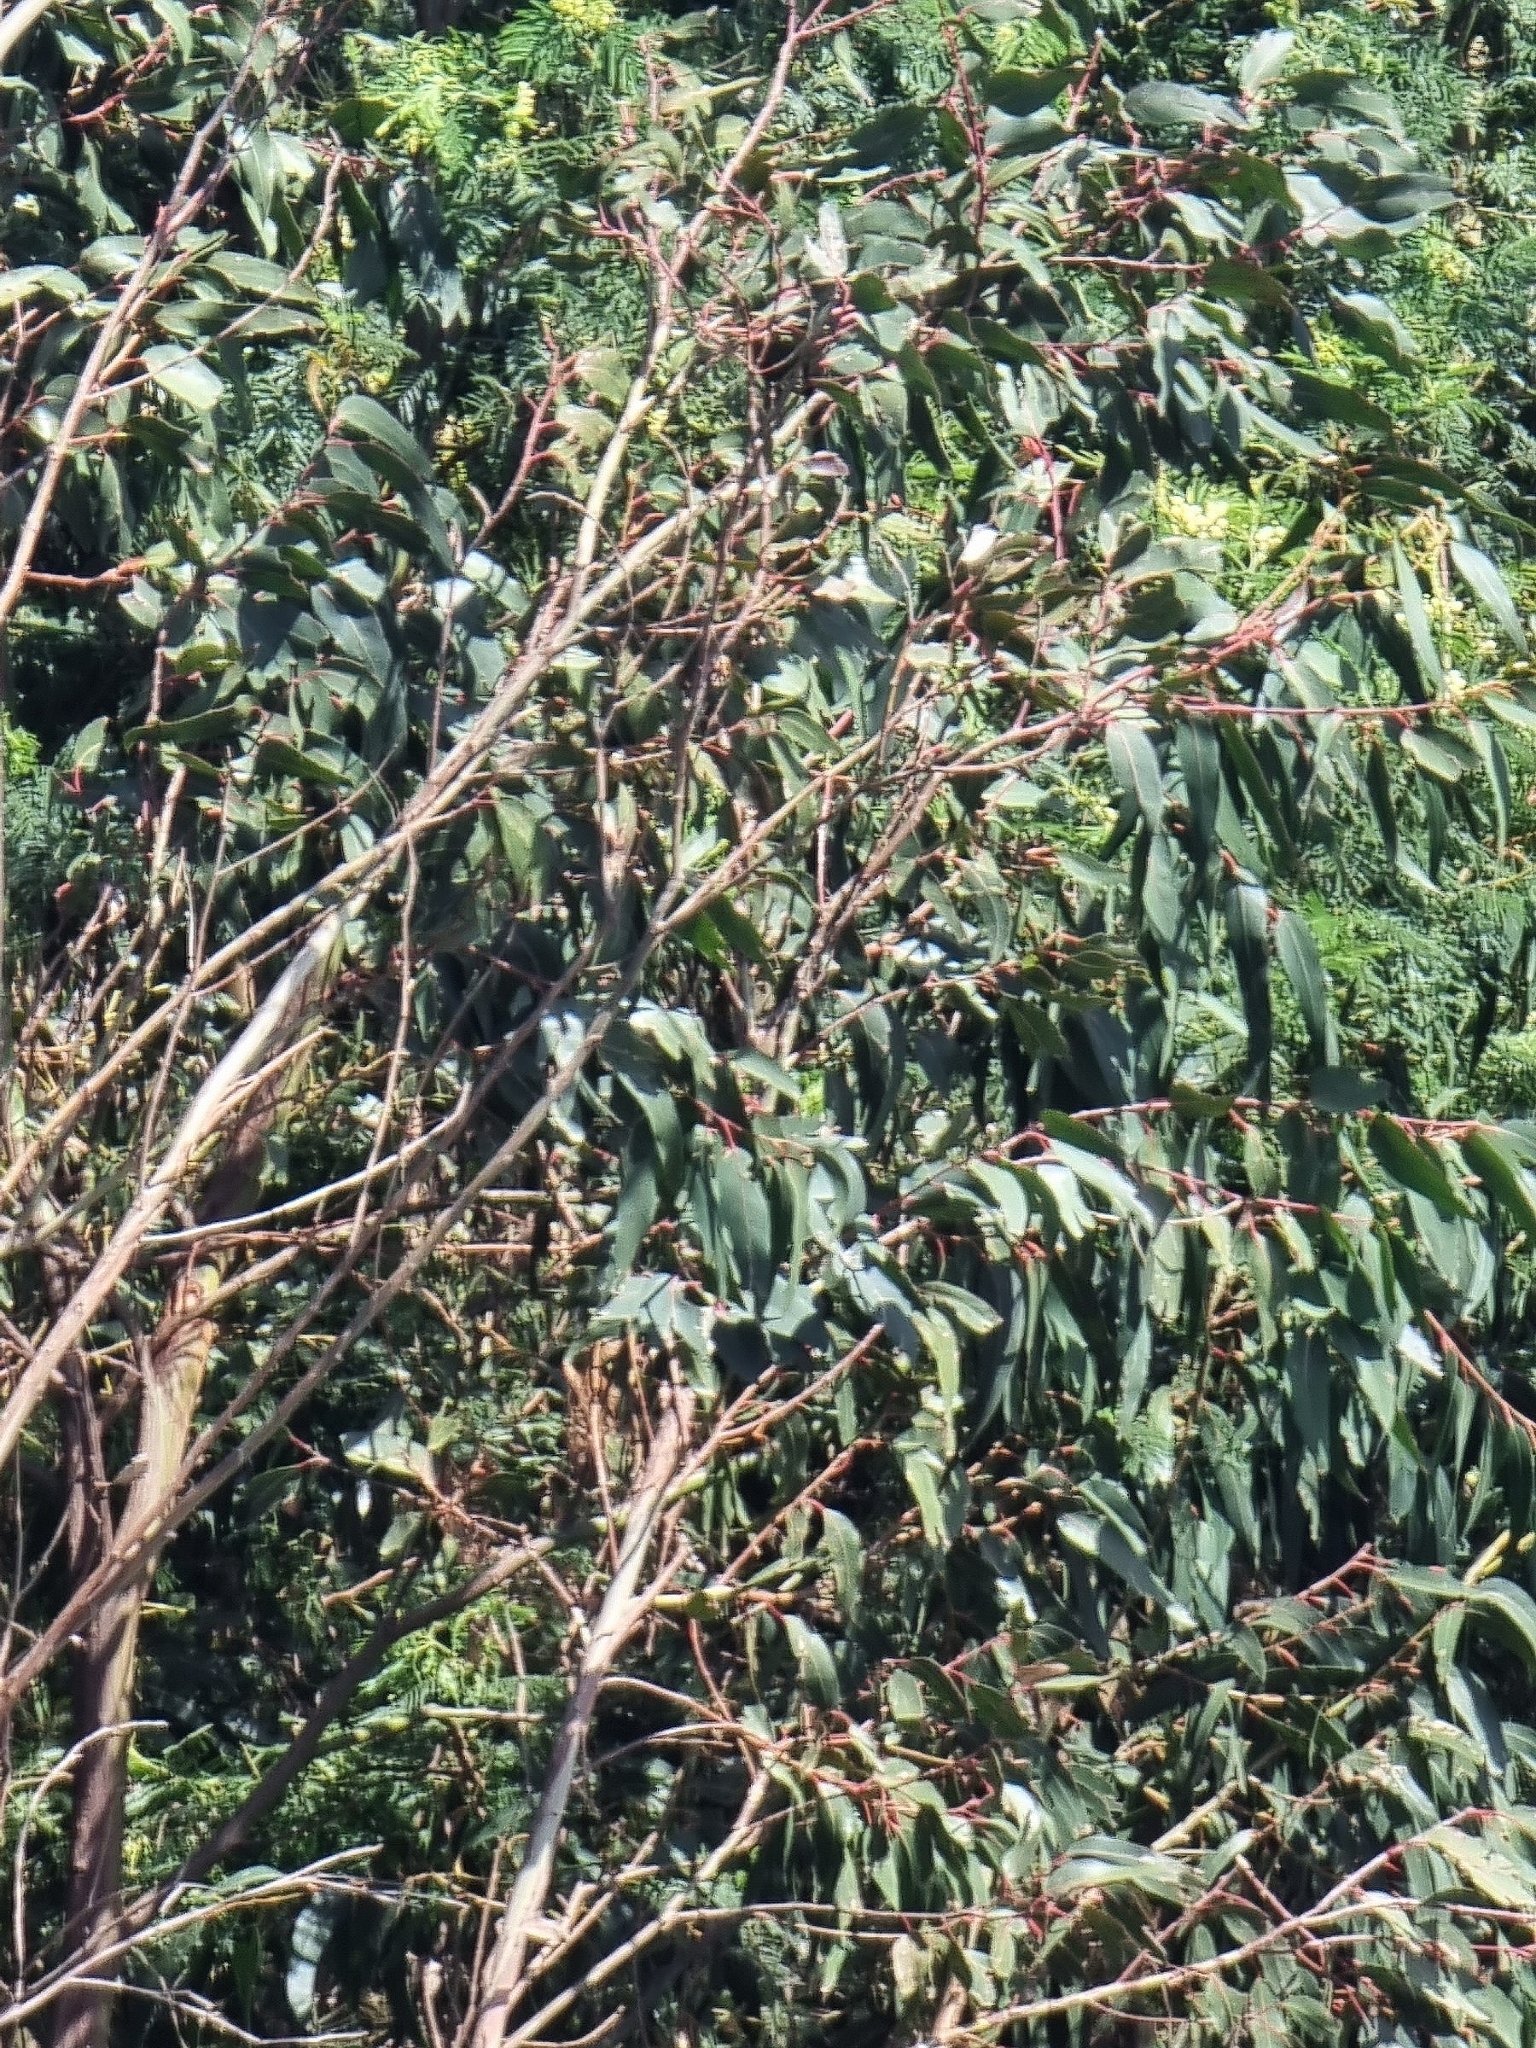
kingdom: Plantae
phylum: Tracheophyta
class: Magnoliopsida
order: Myrtales
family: Myrtaceae
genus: Eucalyptus
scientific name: Eucalyptus globulus
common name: Southern blue-gum
